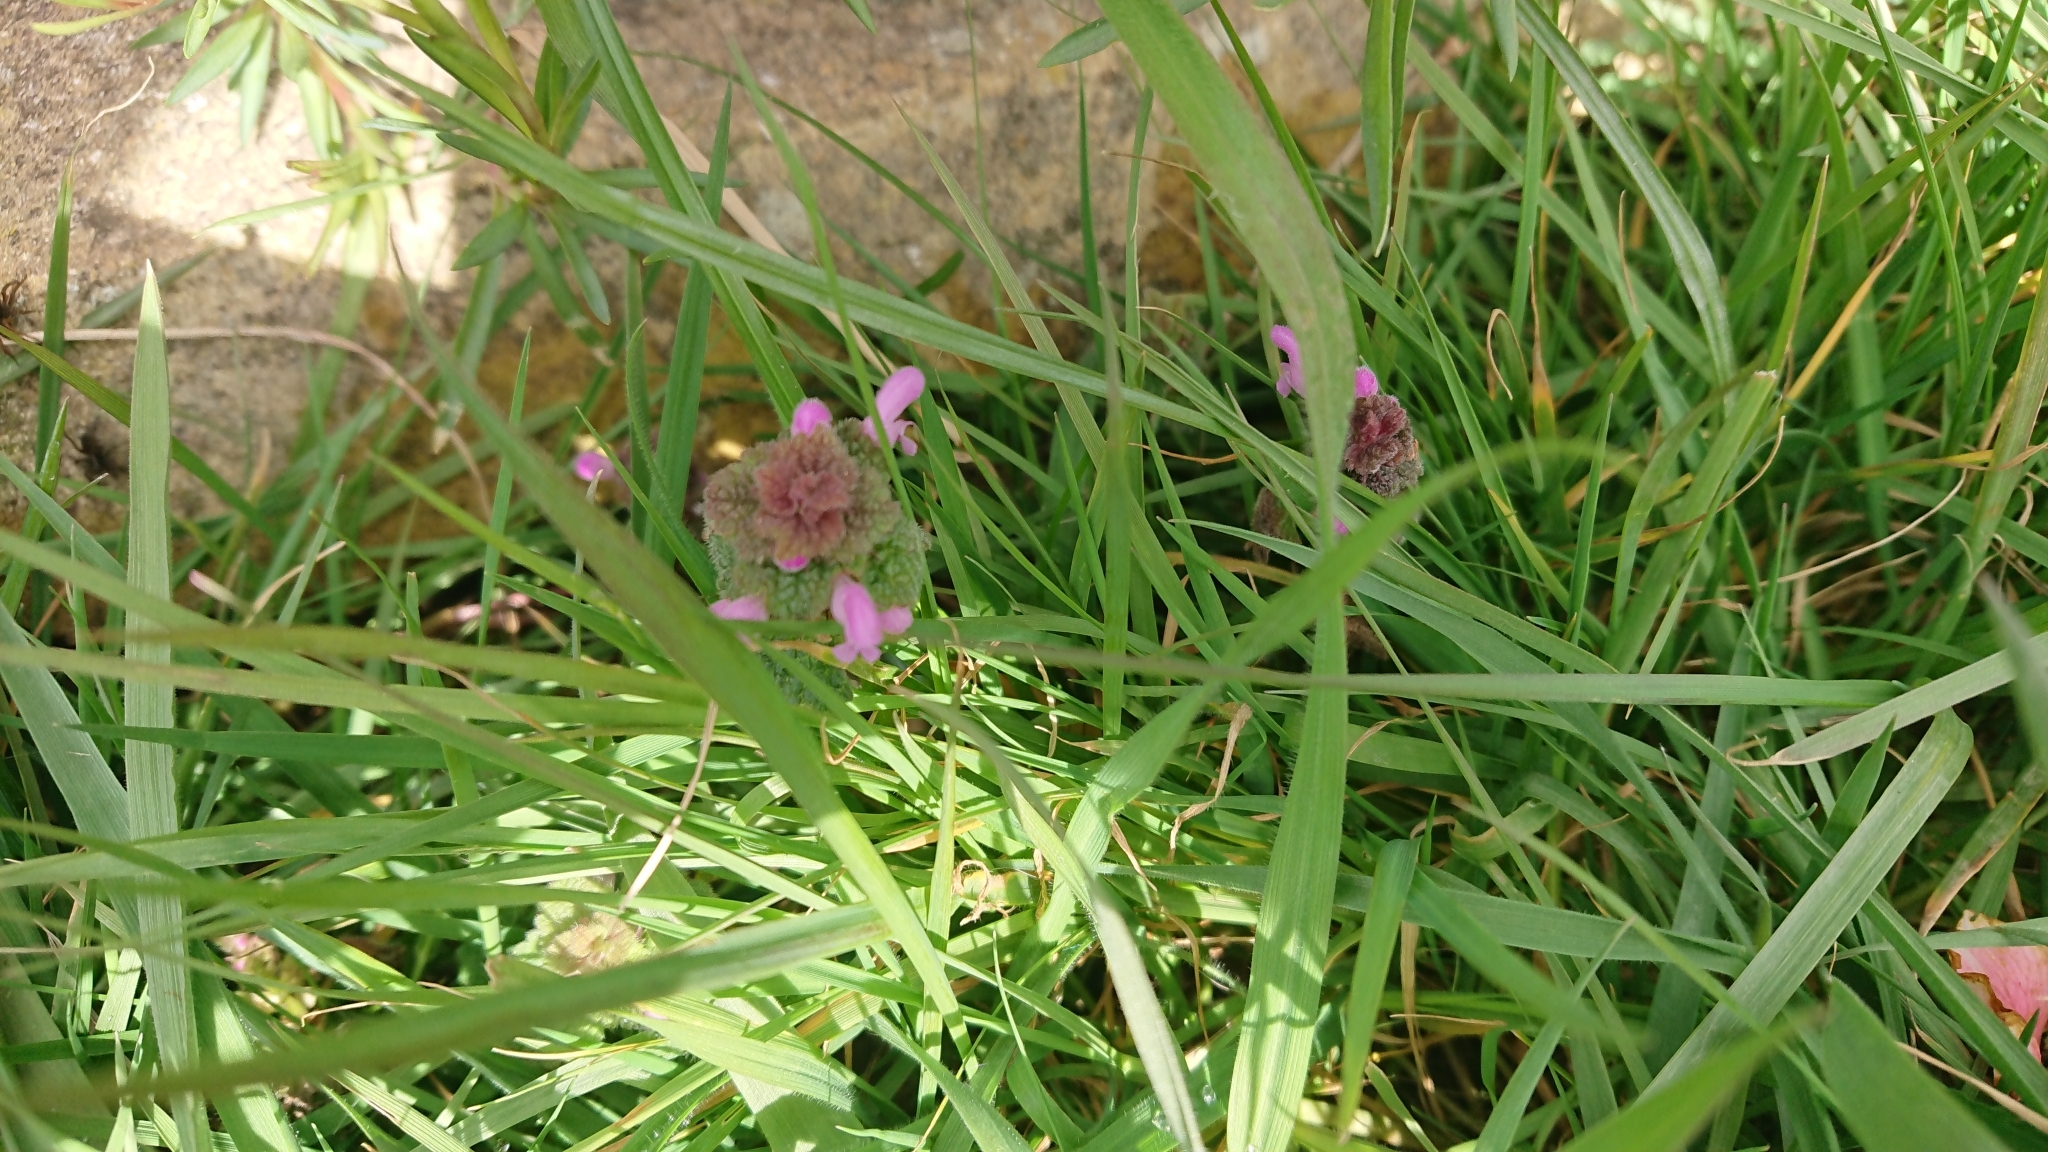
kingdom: Plantae
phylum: Tracheophyta
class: Magnoliopsida
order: Lamiales
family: Lamiaceae
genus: Lamium
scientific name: Lamium purpureum
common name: Red dead-nettle
